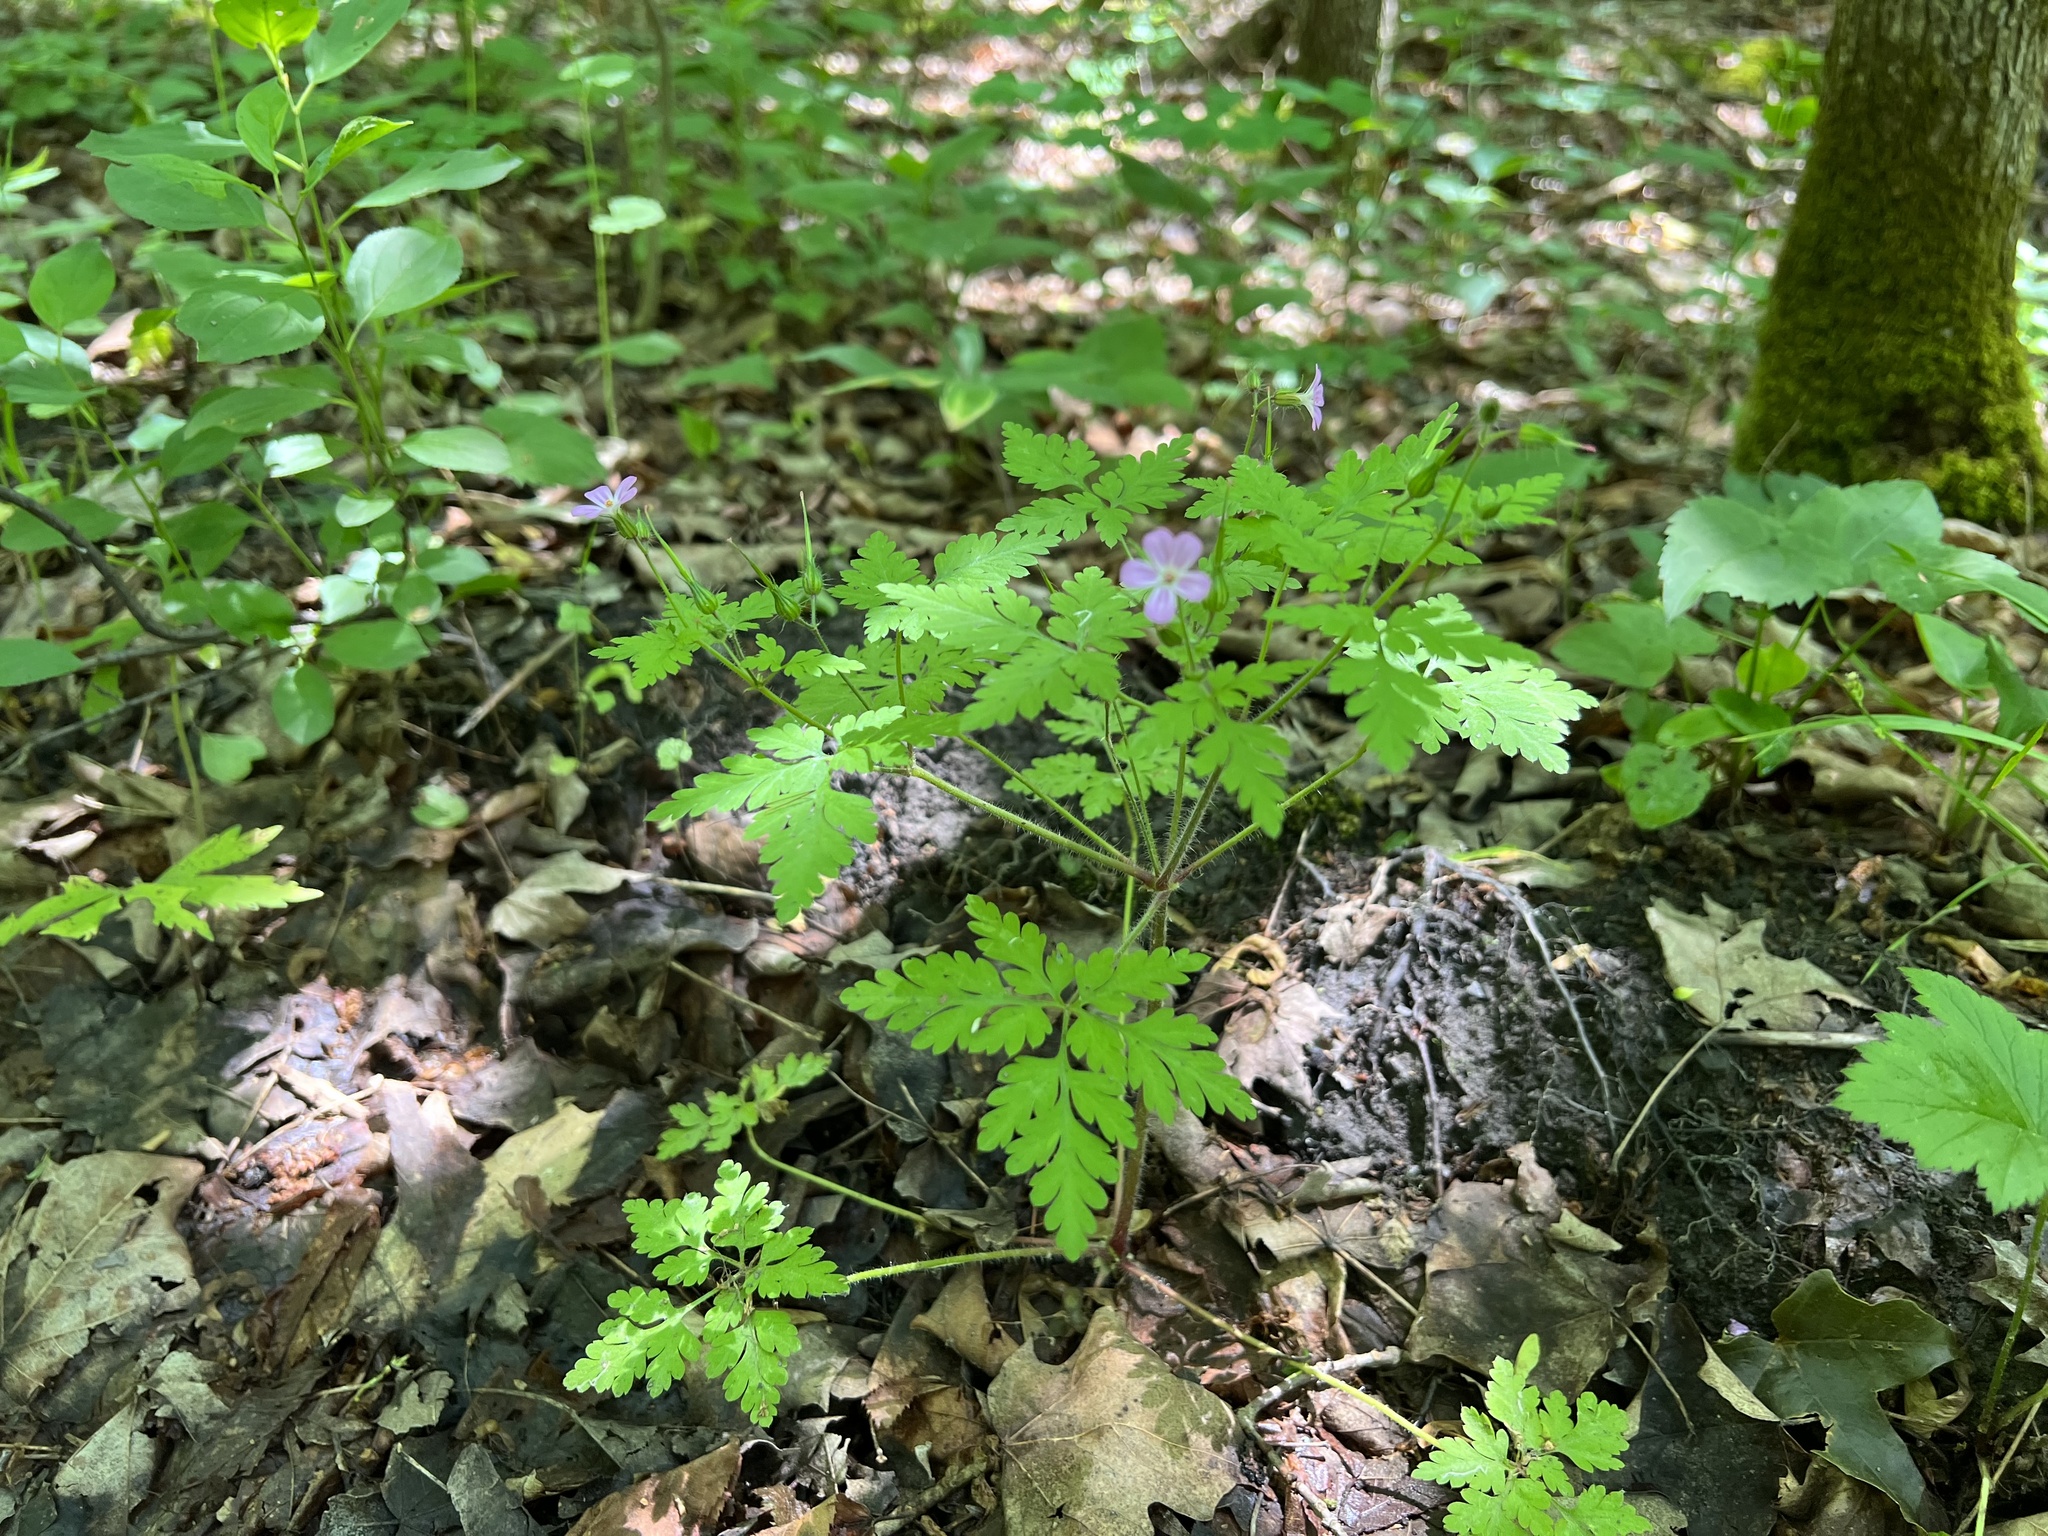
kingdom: Plantae
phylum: Tracheophyta
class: Magnoliopsida
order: Geraniales
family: Geraniaceae
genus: Geranium
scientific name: Geranium robertianum
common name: Herb-robert
